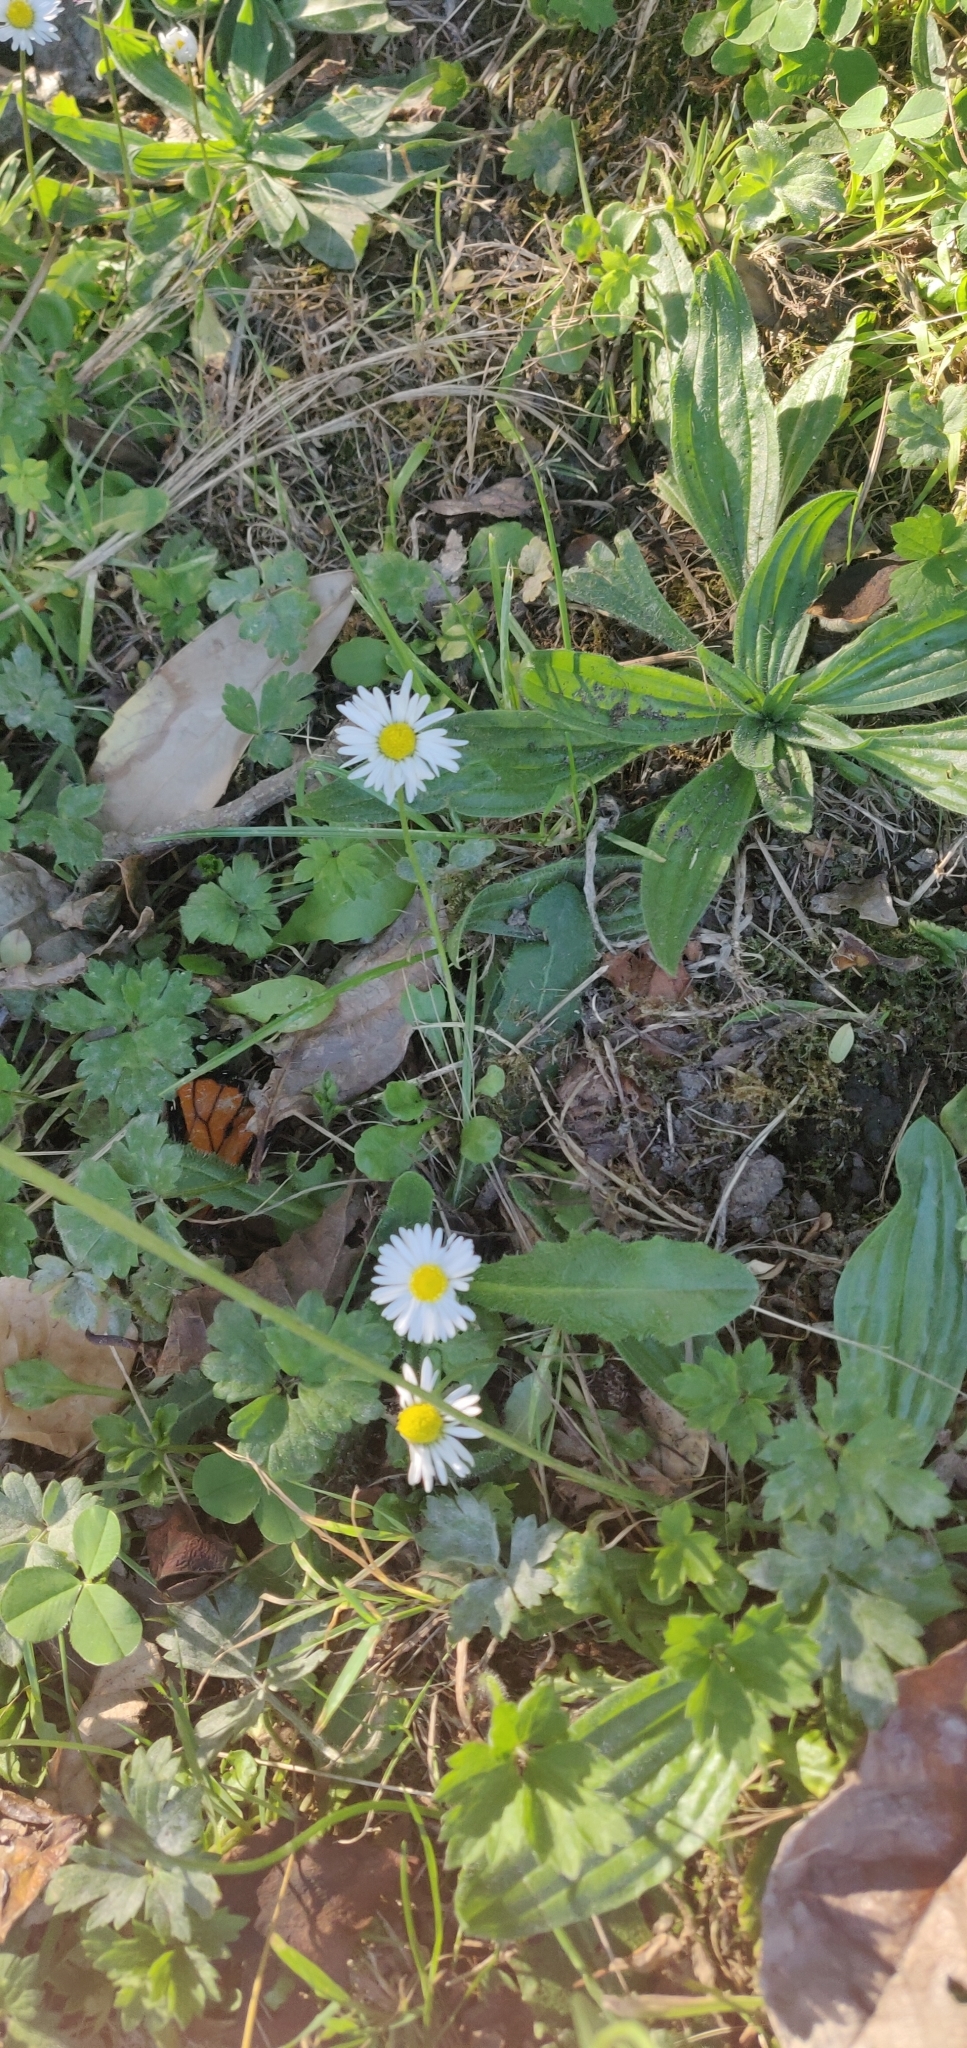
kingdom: Plantae
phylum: Tracheophyta
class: Magnoliopsida
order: Asterales
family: Asteraceae
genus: Bellis
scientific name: Bellis perennis
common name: Lawndaisy
